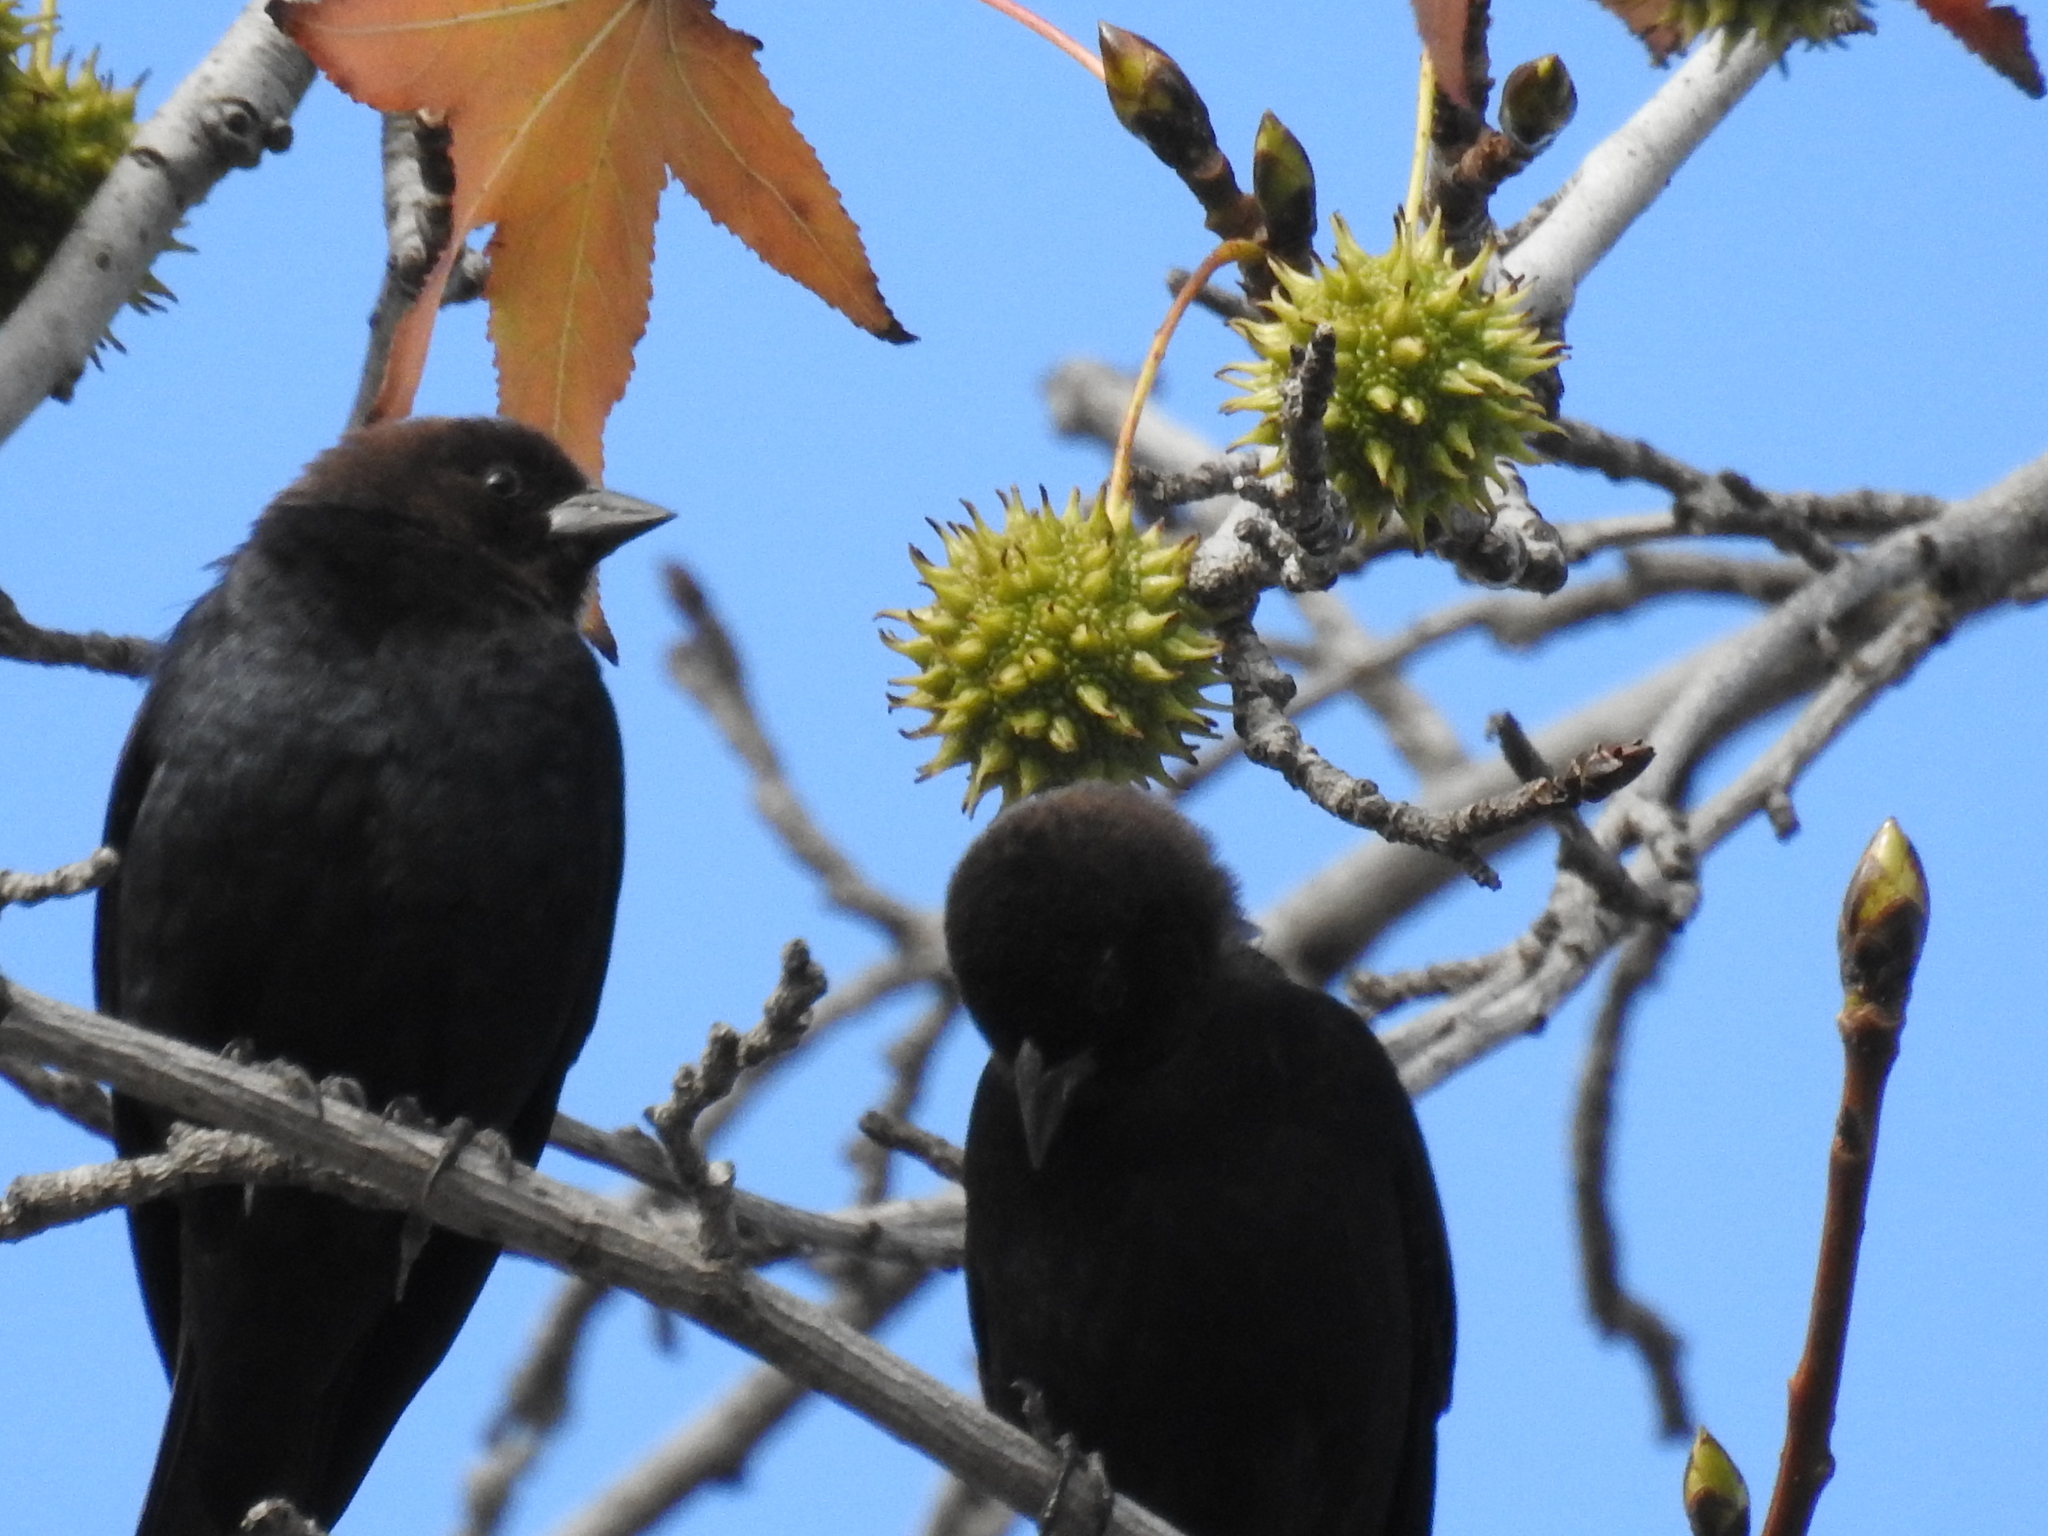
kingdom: Animalia
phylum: Chordata
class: Aves
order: Passeriformes
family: Icteridae
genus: Molothrus
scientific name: Molothrus ater
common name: Brown-headed cowbird
